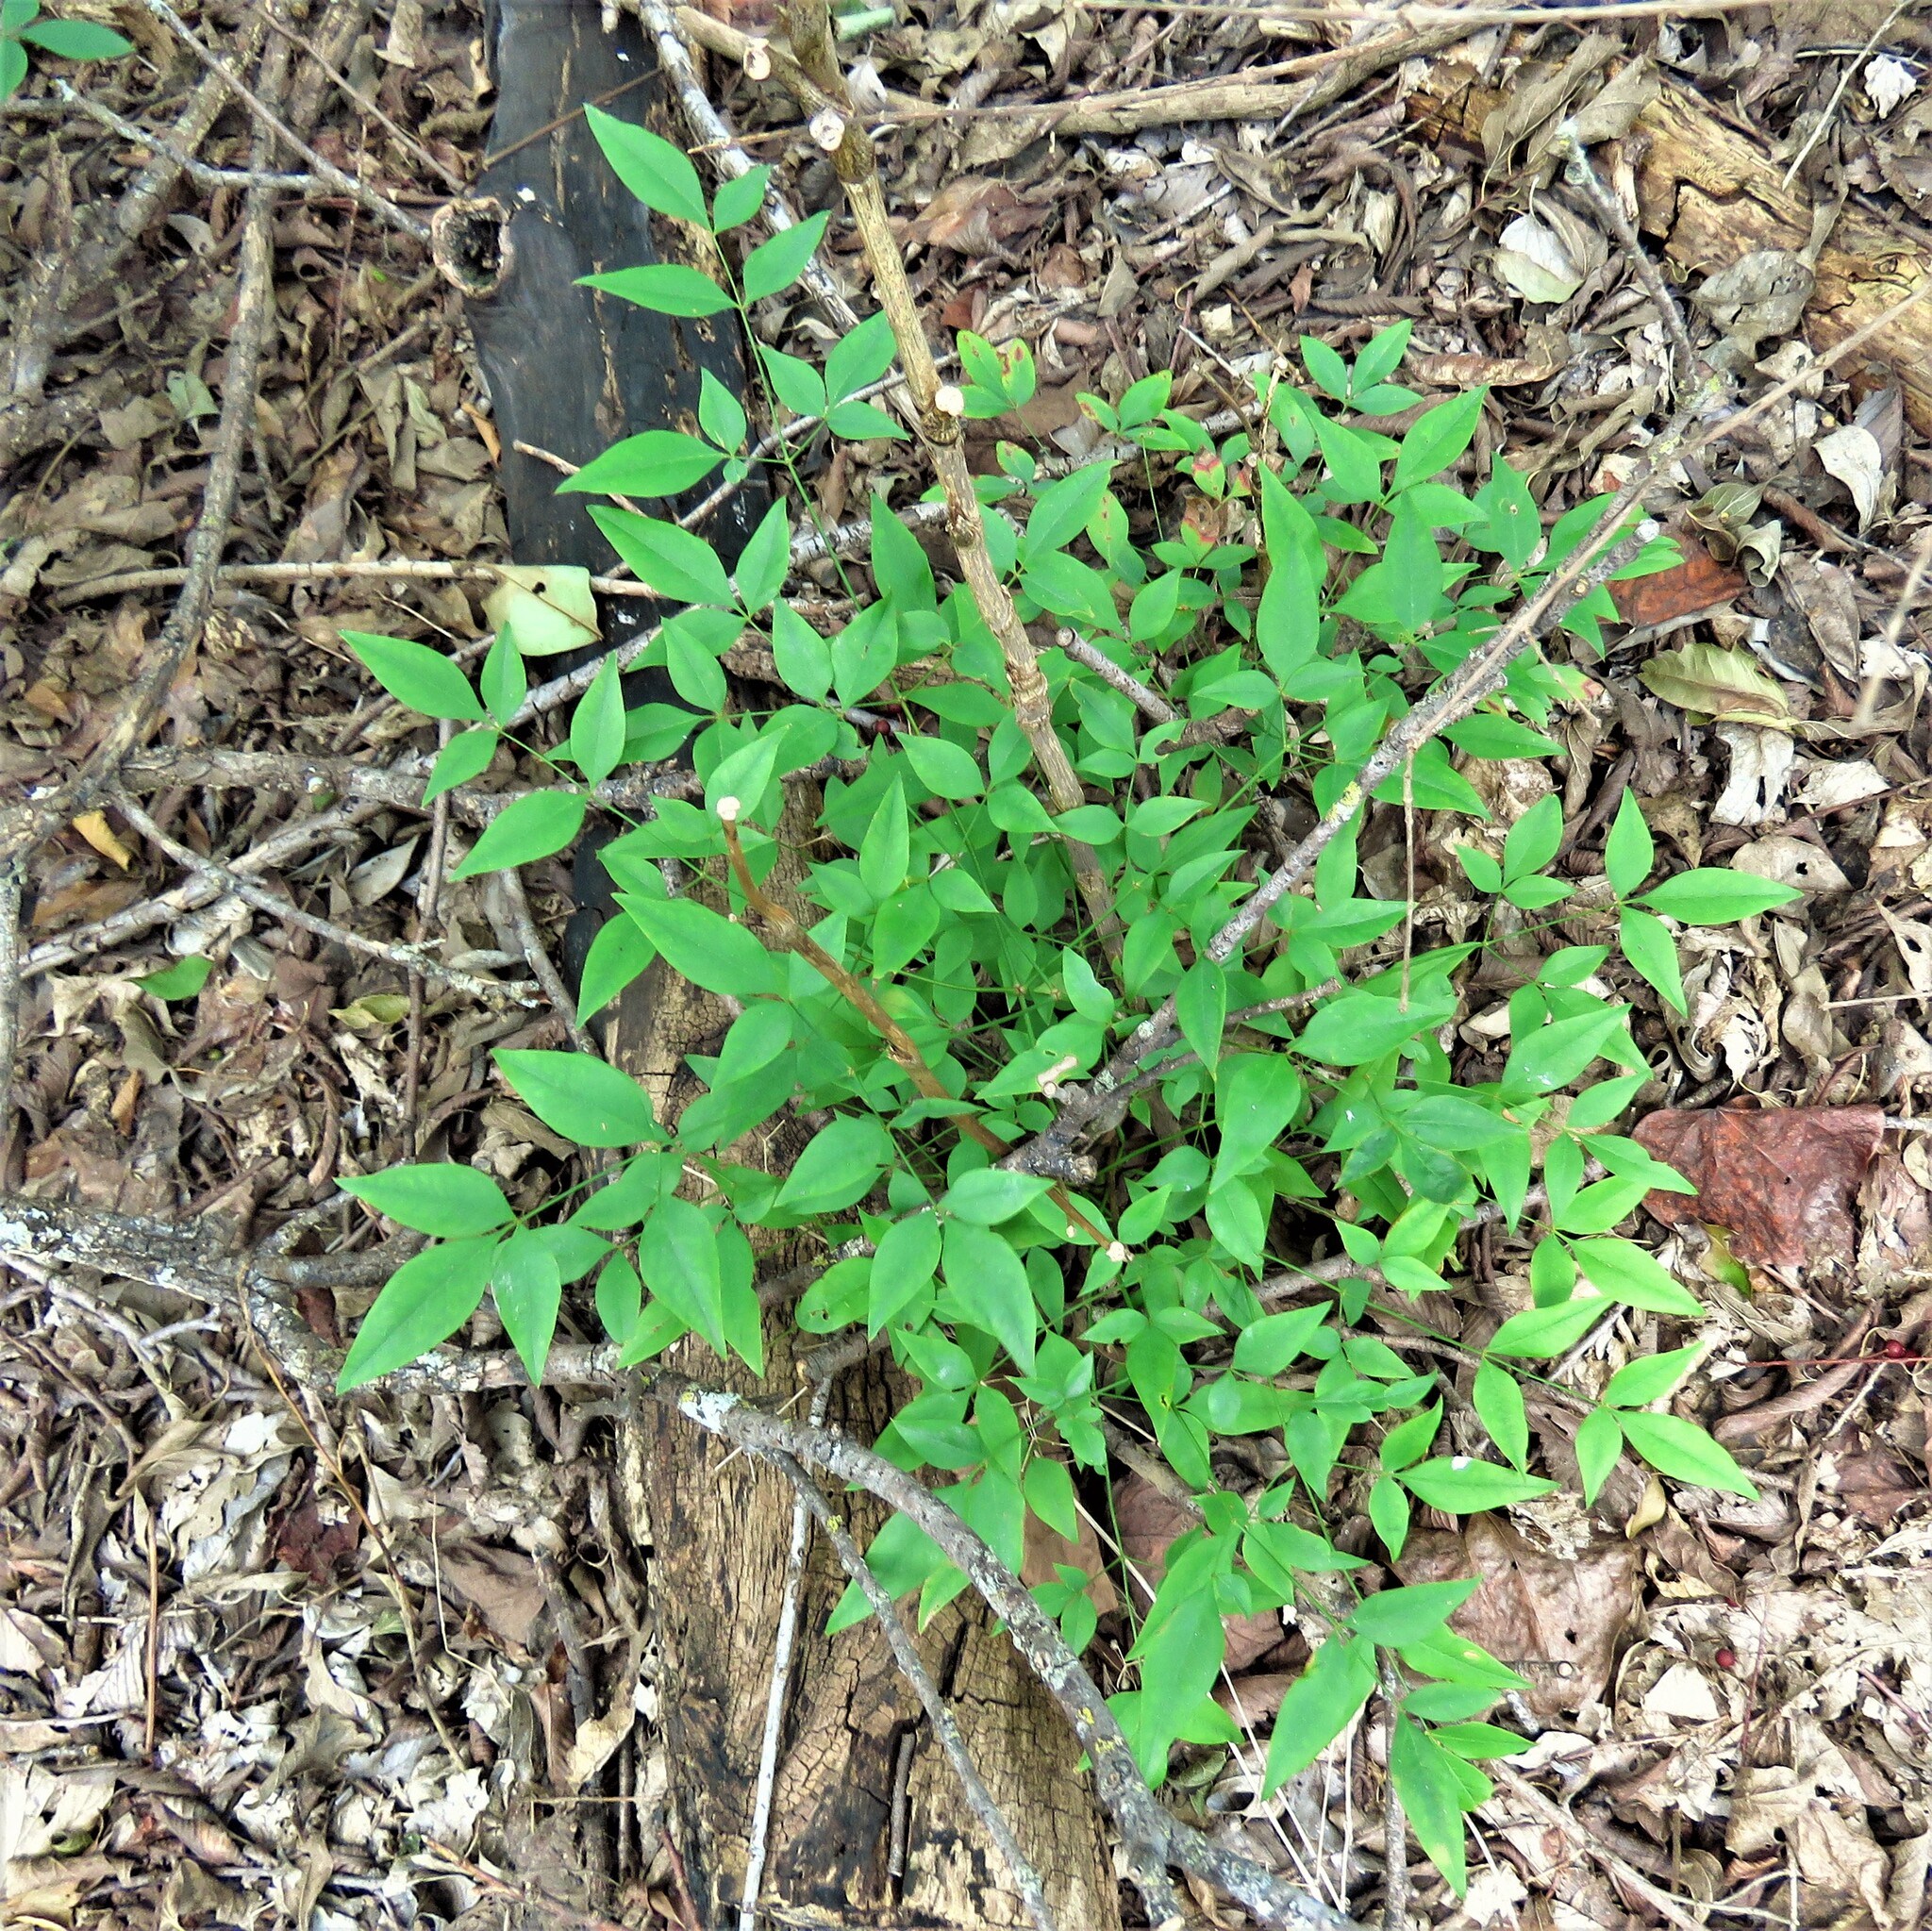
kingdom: Plantae
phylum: Tracheophyta
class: Magnoliopsida
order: Ranunculales
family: Berberidaceae
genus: Nandina
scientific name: Nandina domestica
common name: Sacred bamboo
